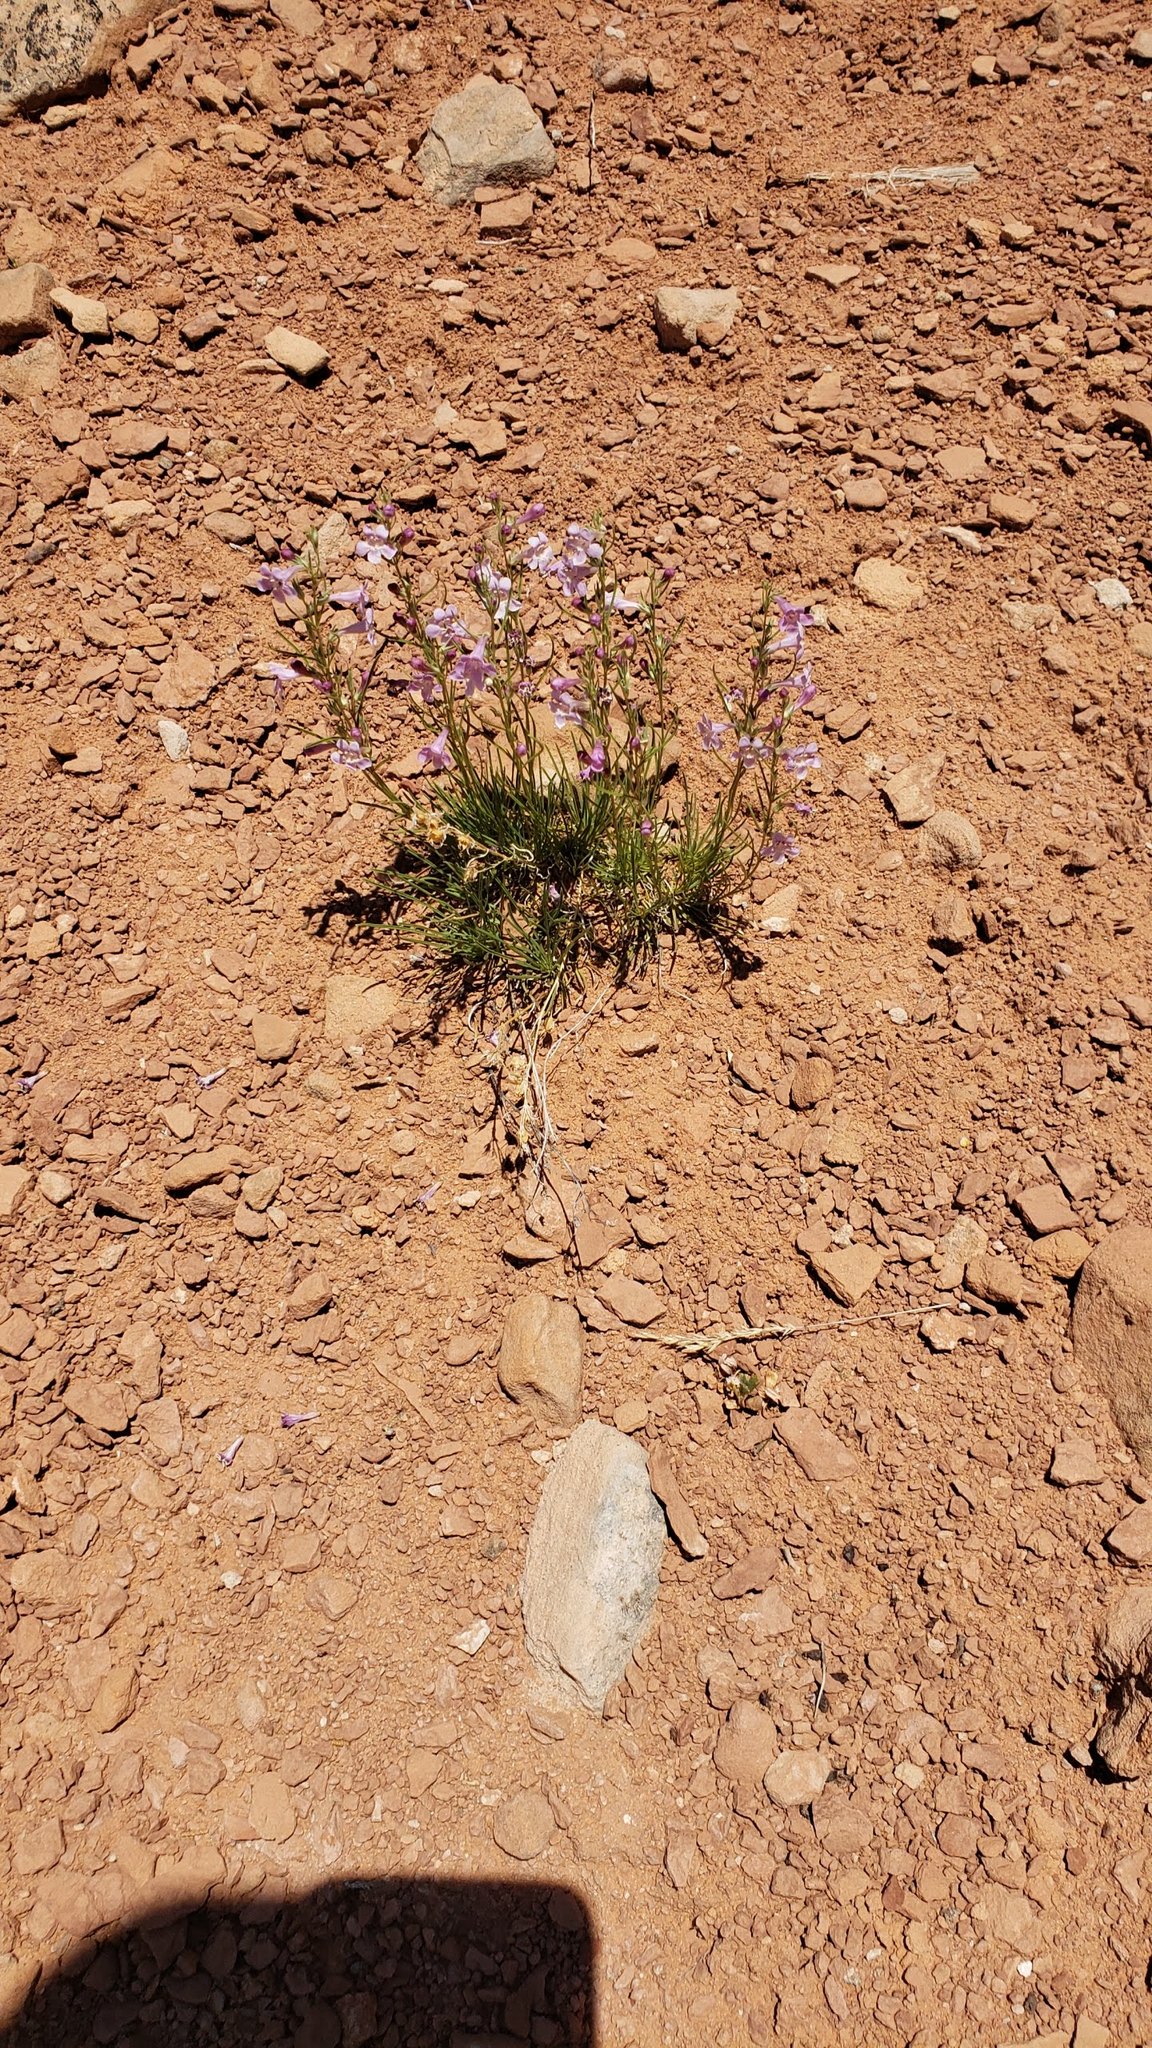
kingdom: Plantae
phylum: Tracheophyta
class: Magnoliopsida
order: Lamiales
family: Plantaginaceae
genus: Penstemon
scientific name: Penstemon laricifolius
